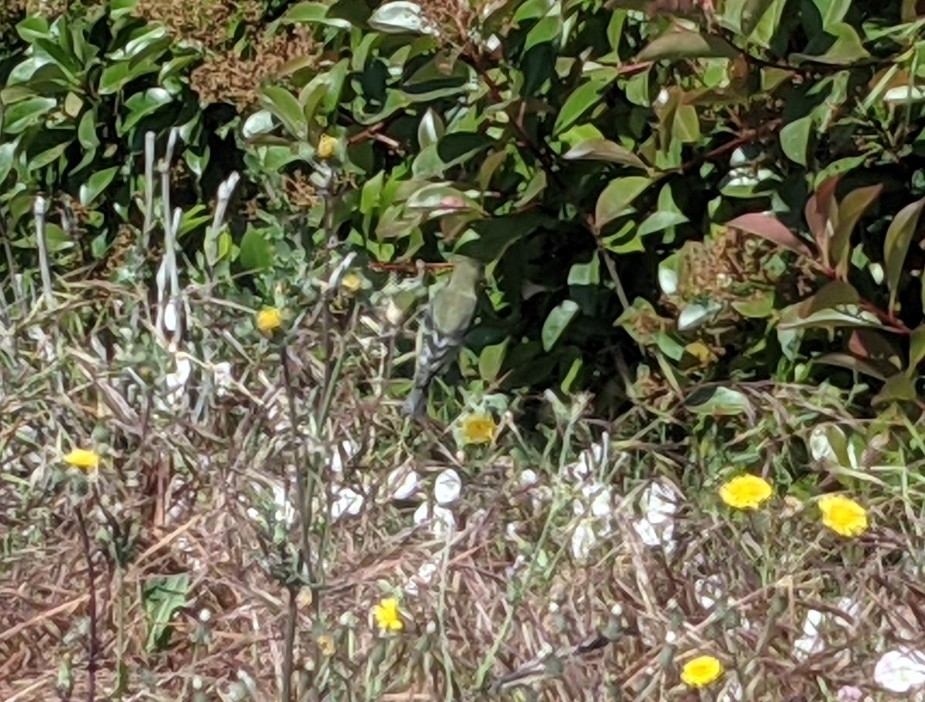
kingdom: Animalia
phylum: Chordata
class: Aves
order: Passeriformes
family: Fringillidae
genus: Spinus
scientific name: Spinus psaltria
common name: Lesser goldfinch
